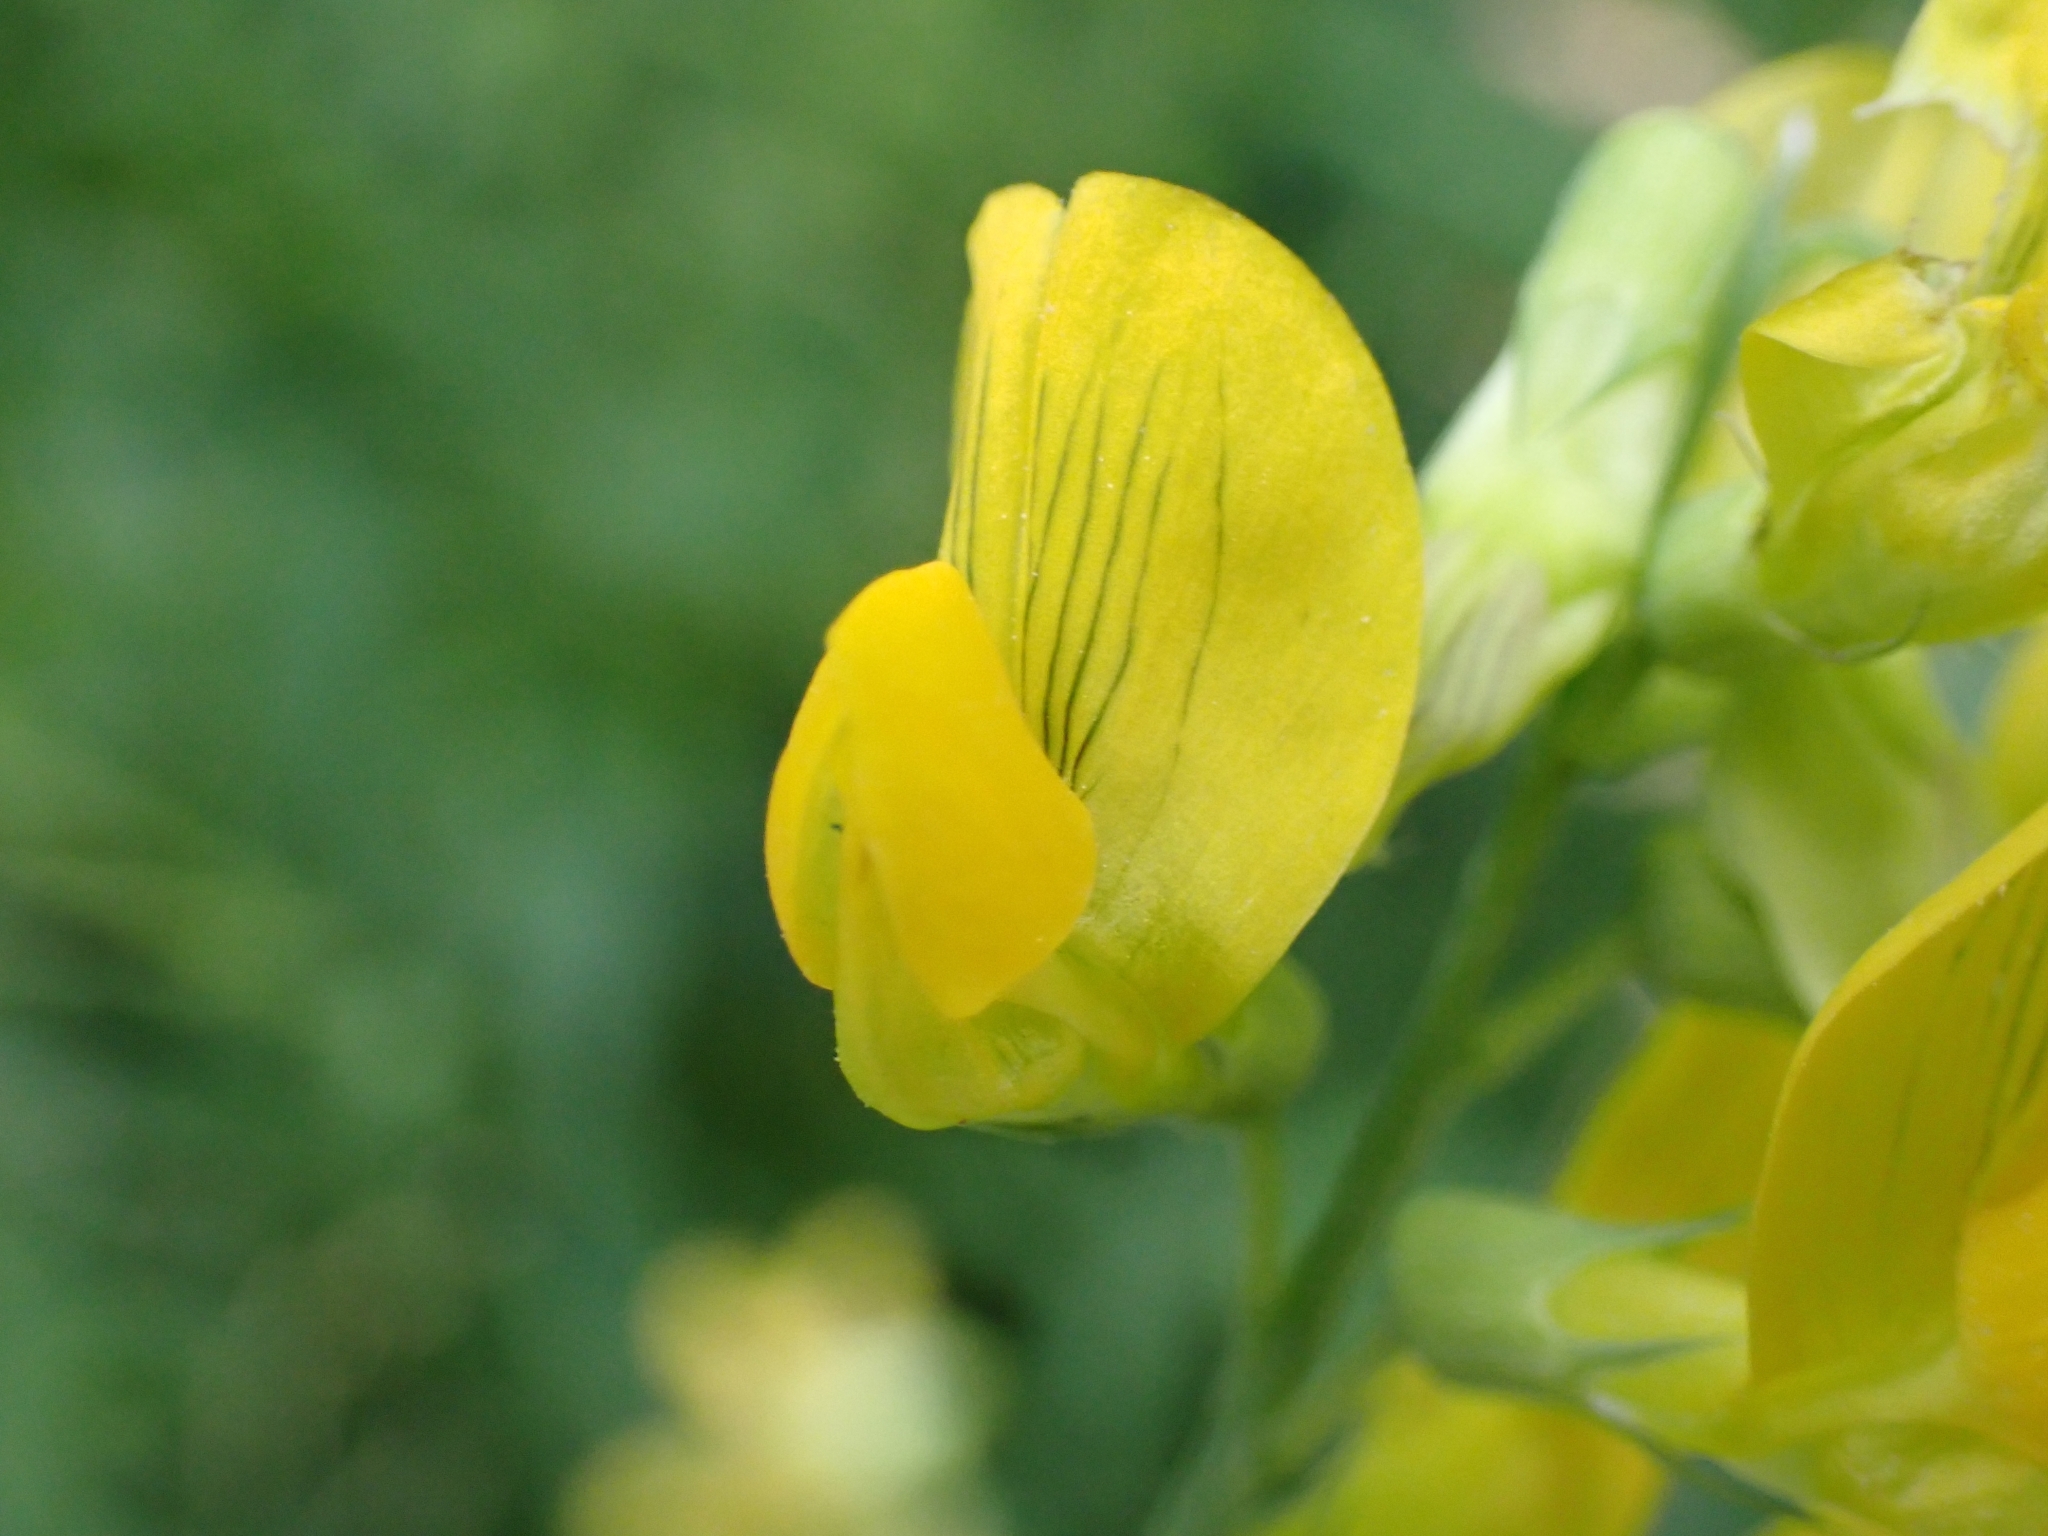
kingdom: Plantae
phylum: Tracheophyta
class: Magnoliopsida
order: Fabales
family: Fabaceae
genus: Lathyrus
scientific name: Lathyrus pratensis
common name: Meadow vetchling
